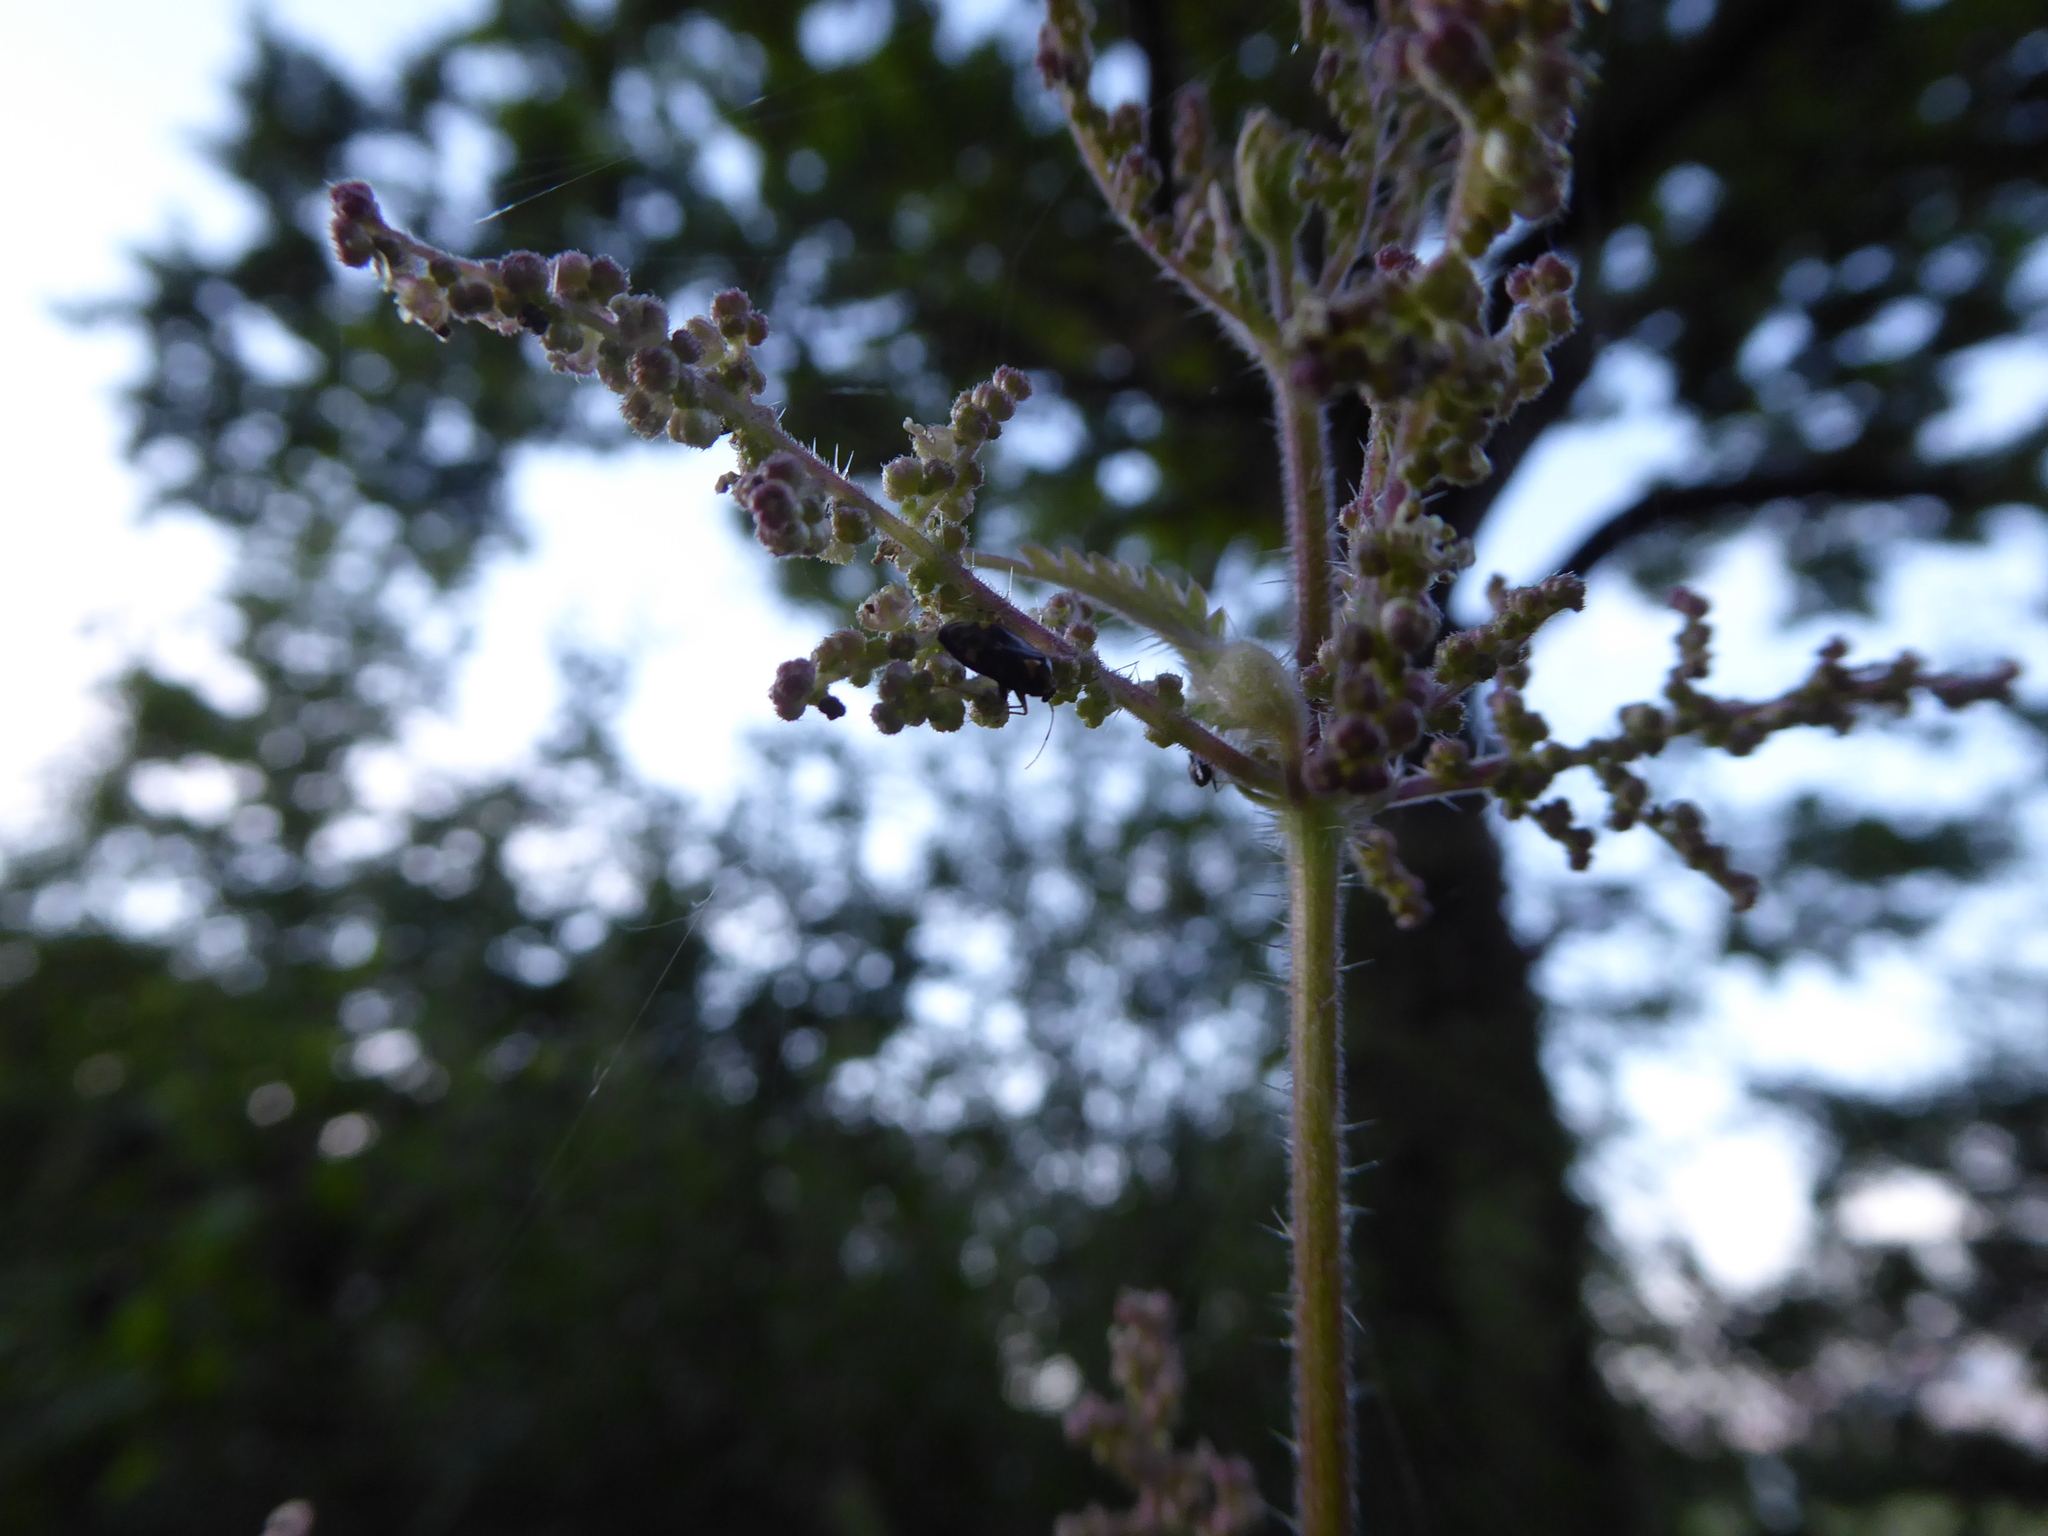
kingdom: Animalia
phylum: Arthropoda
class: Insecta
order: Hemiptera
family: Miridae
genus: Liocoris
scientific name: Liocoris tripustulatus
